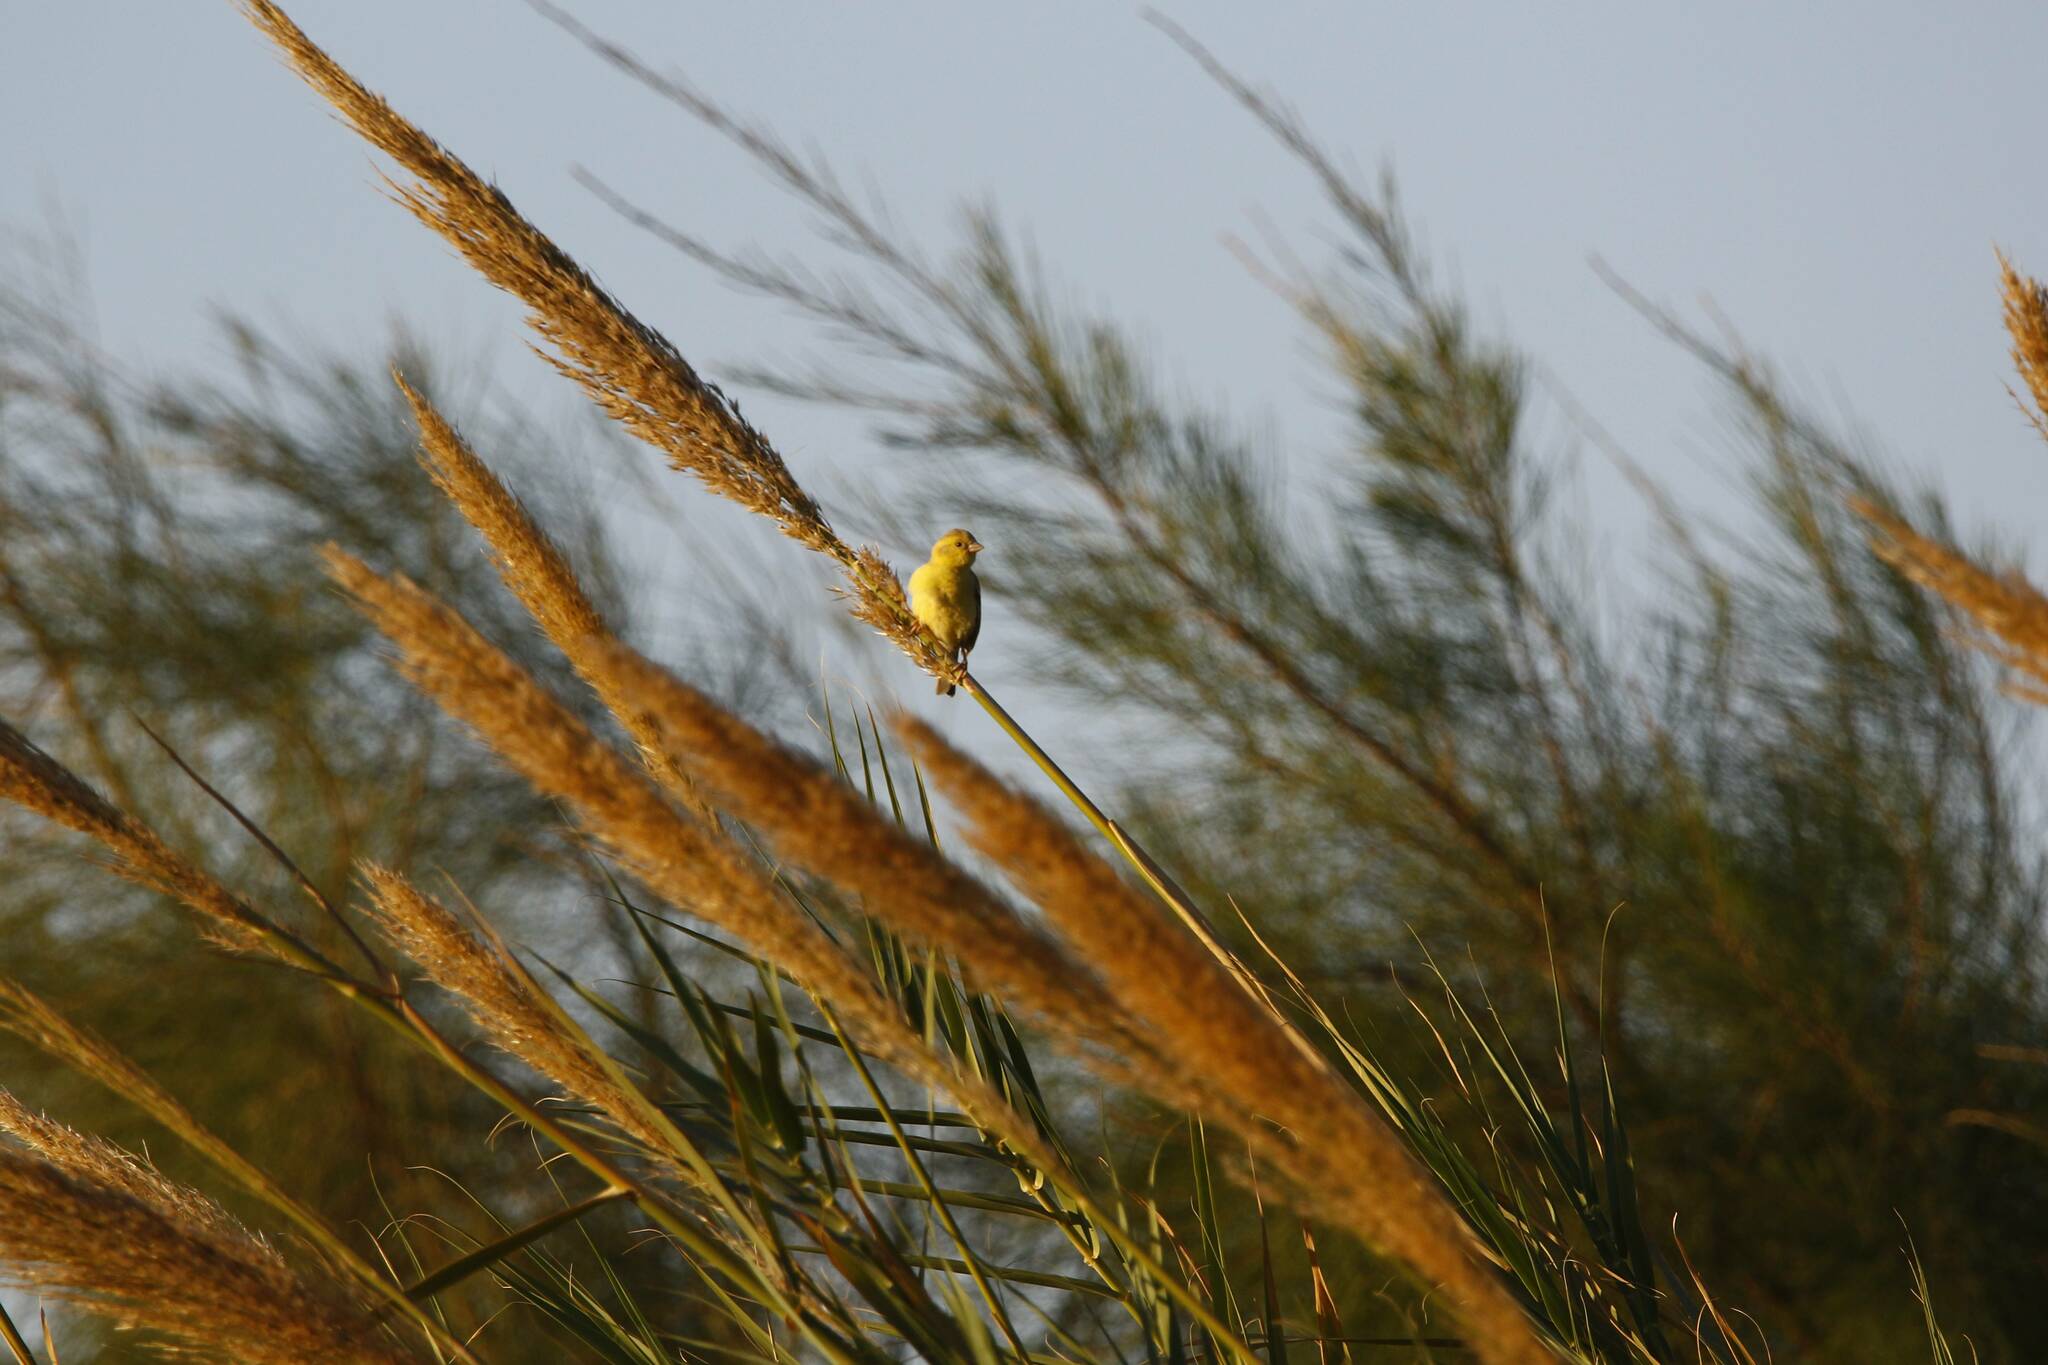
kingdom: Animalia
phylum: Chordata
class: Aves
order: Passeriformes
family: Passeridae
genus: Passer
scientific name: Passer luteus
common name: Sudan golden sparrow
